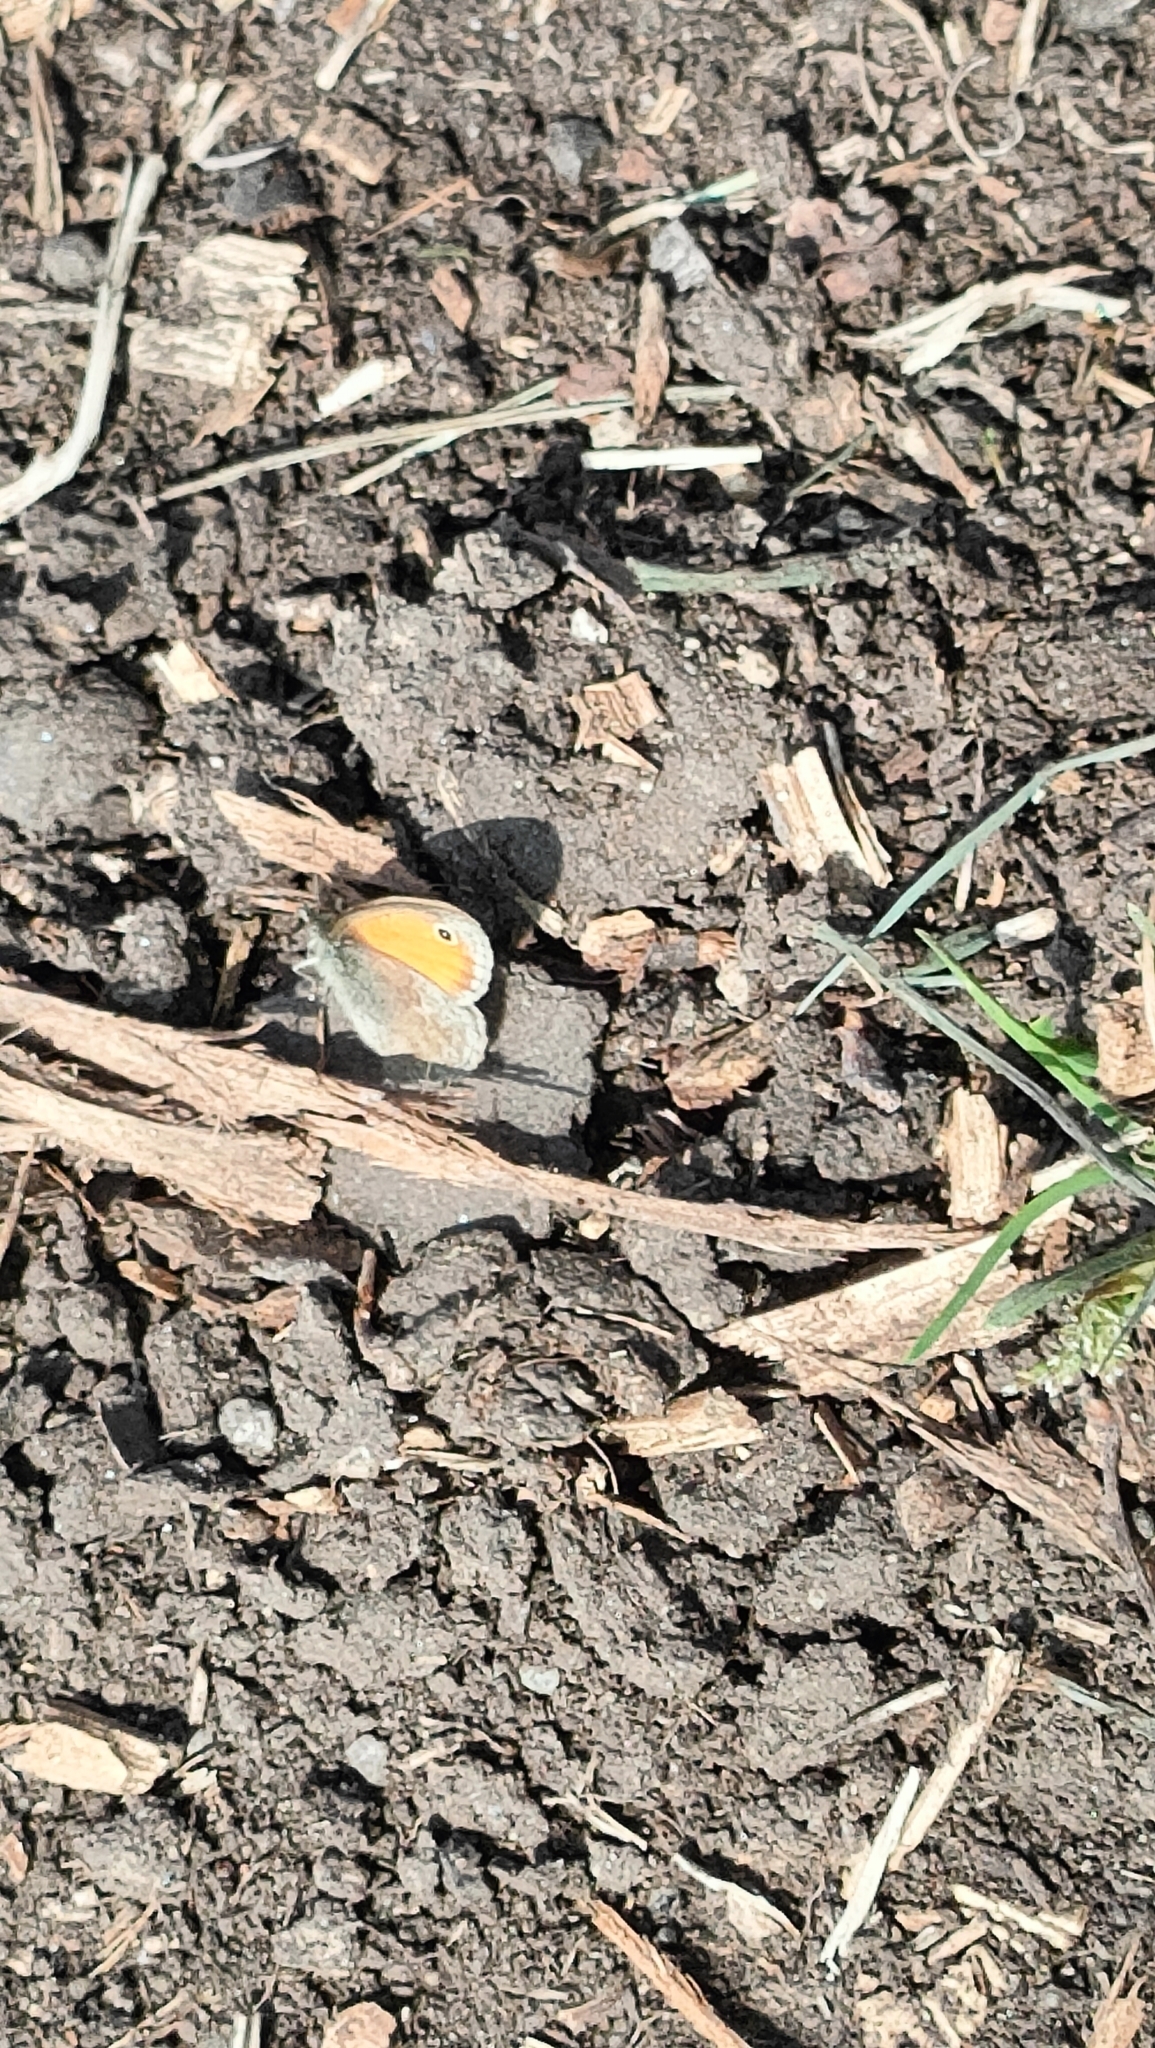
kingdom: Animalia
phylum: Arthropoda
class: Insecta
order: Lepidoptera
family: Nymphalidae
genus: Coenonympha
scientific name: Coenonympha pamphilus
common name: Small heath
